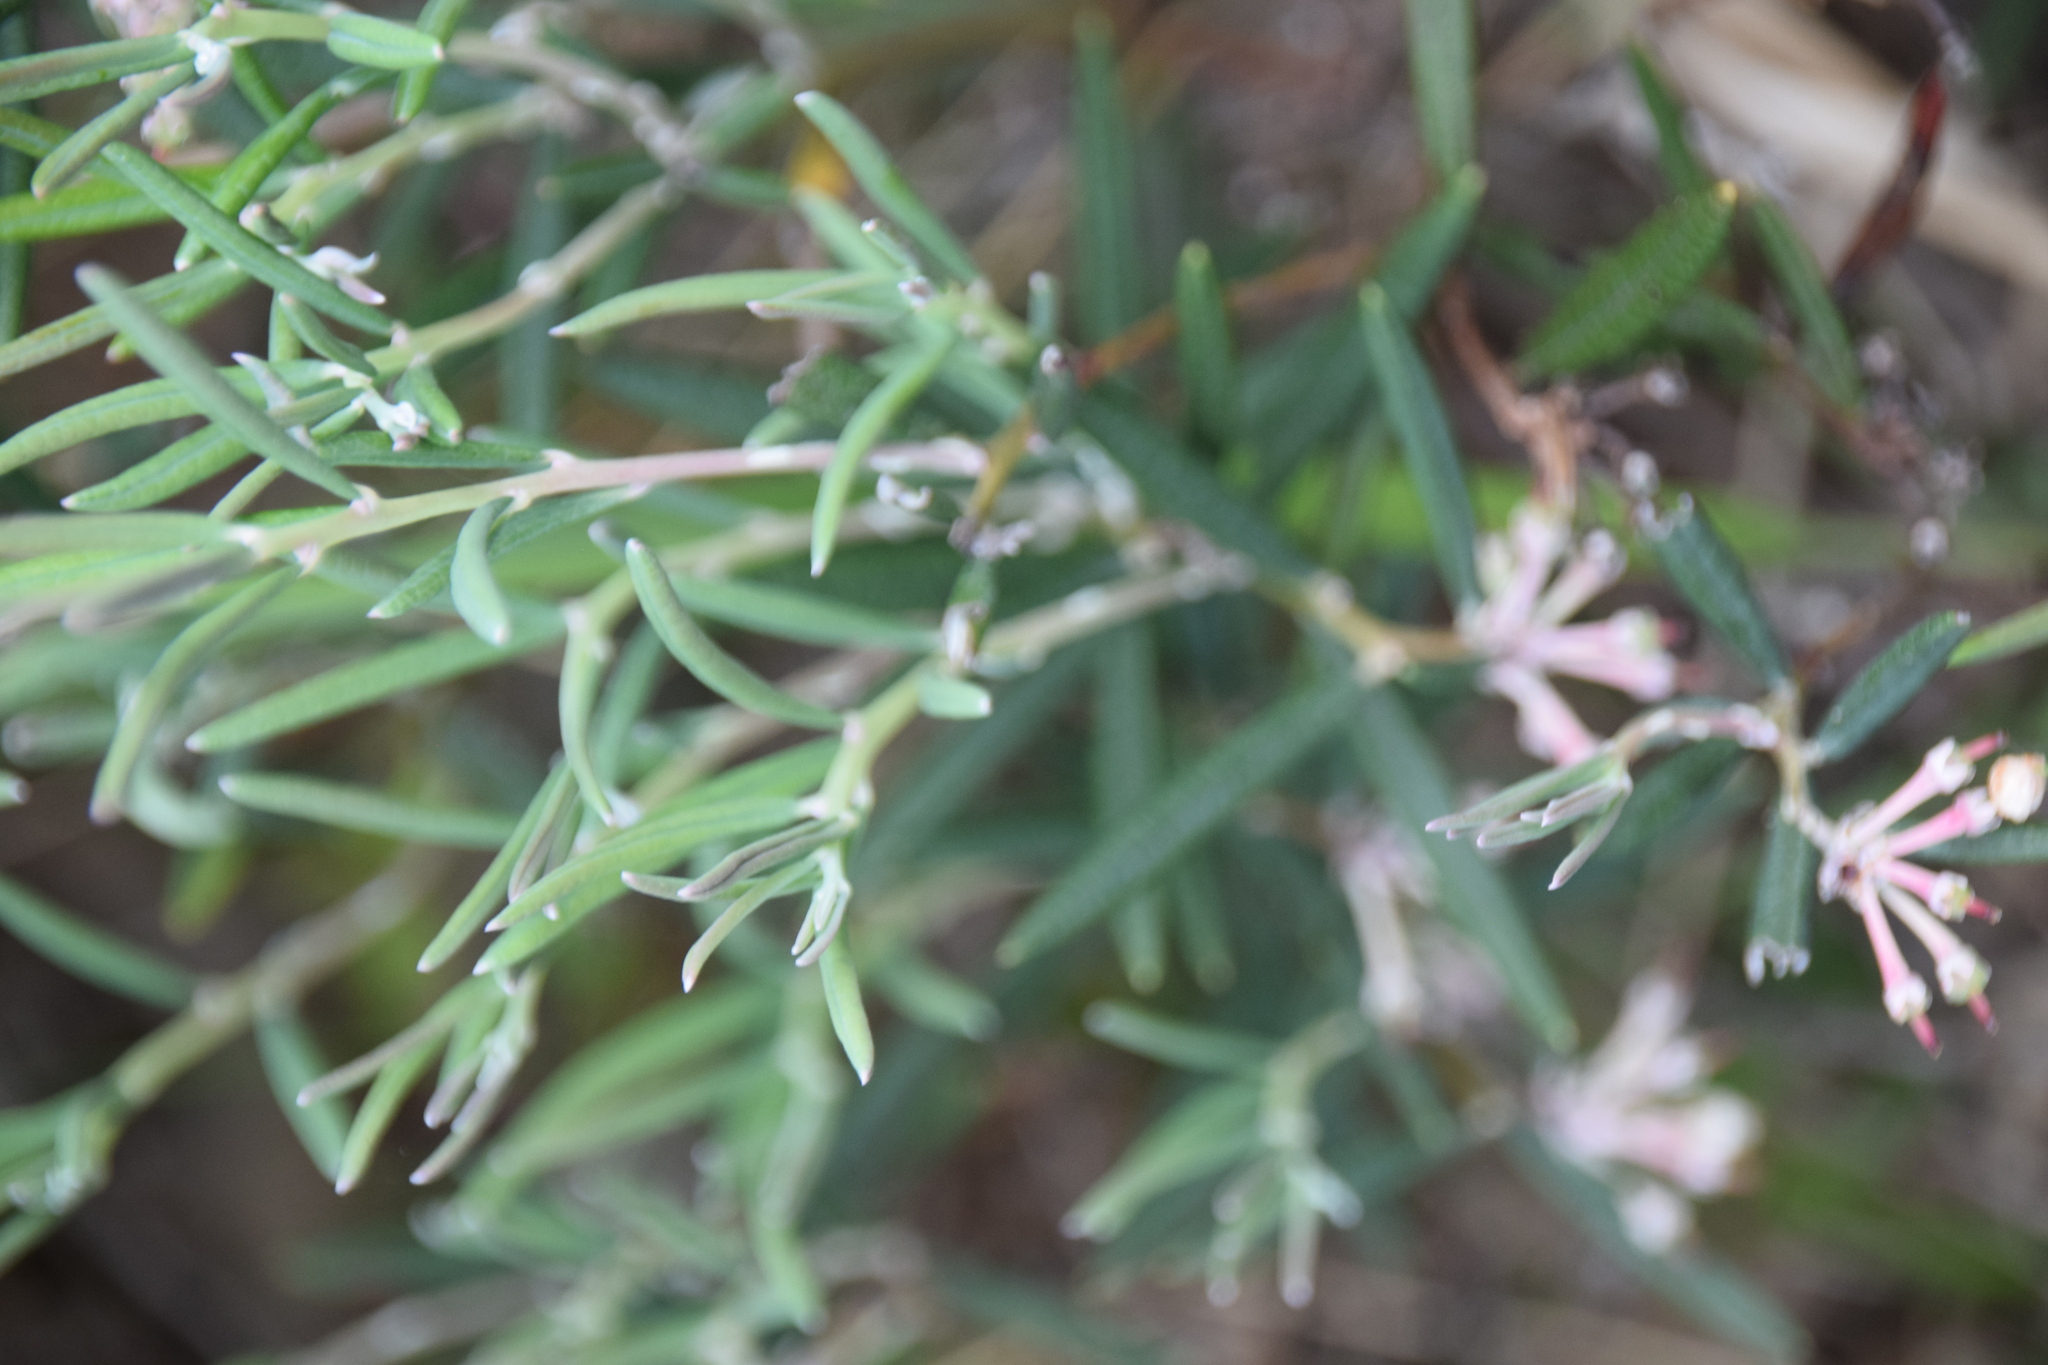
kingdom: Plantae
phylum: Tracheophyta
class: Magnoliopsida
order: Ericales
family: Ericaceae
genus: Andromeda
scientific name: Andromeda polifolia
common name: Bog-rosemary
